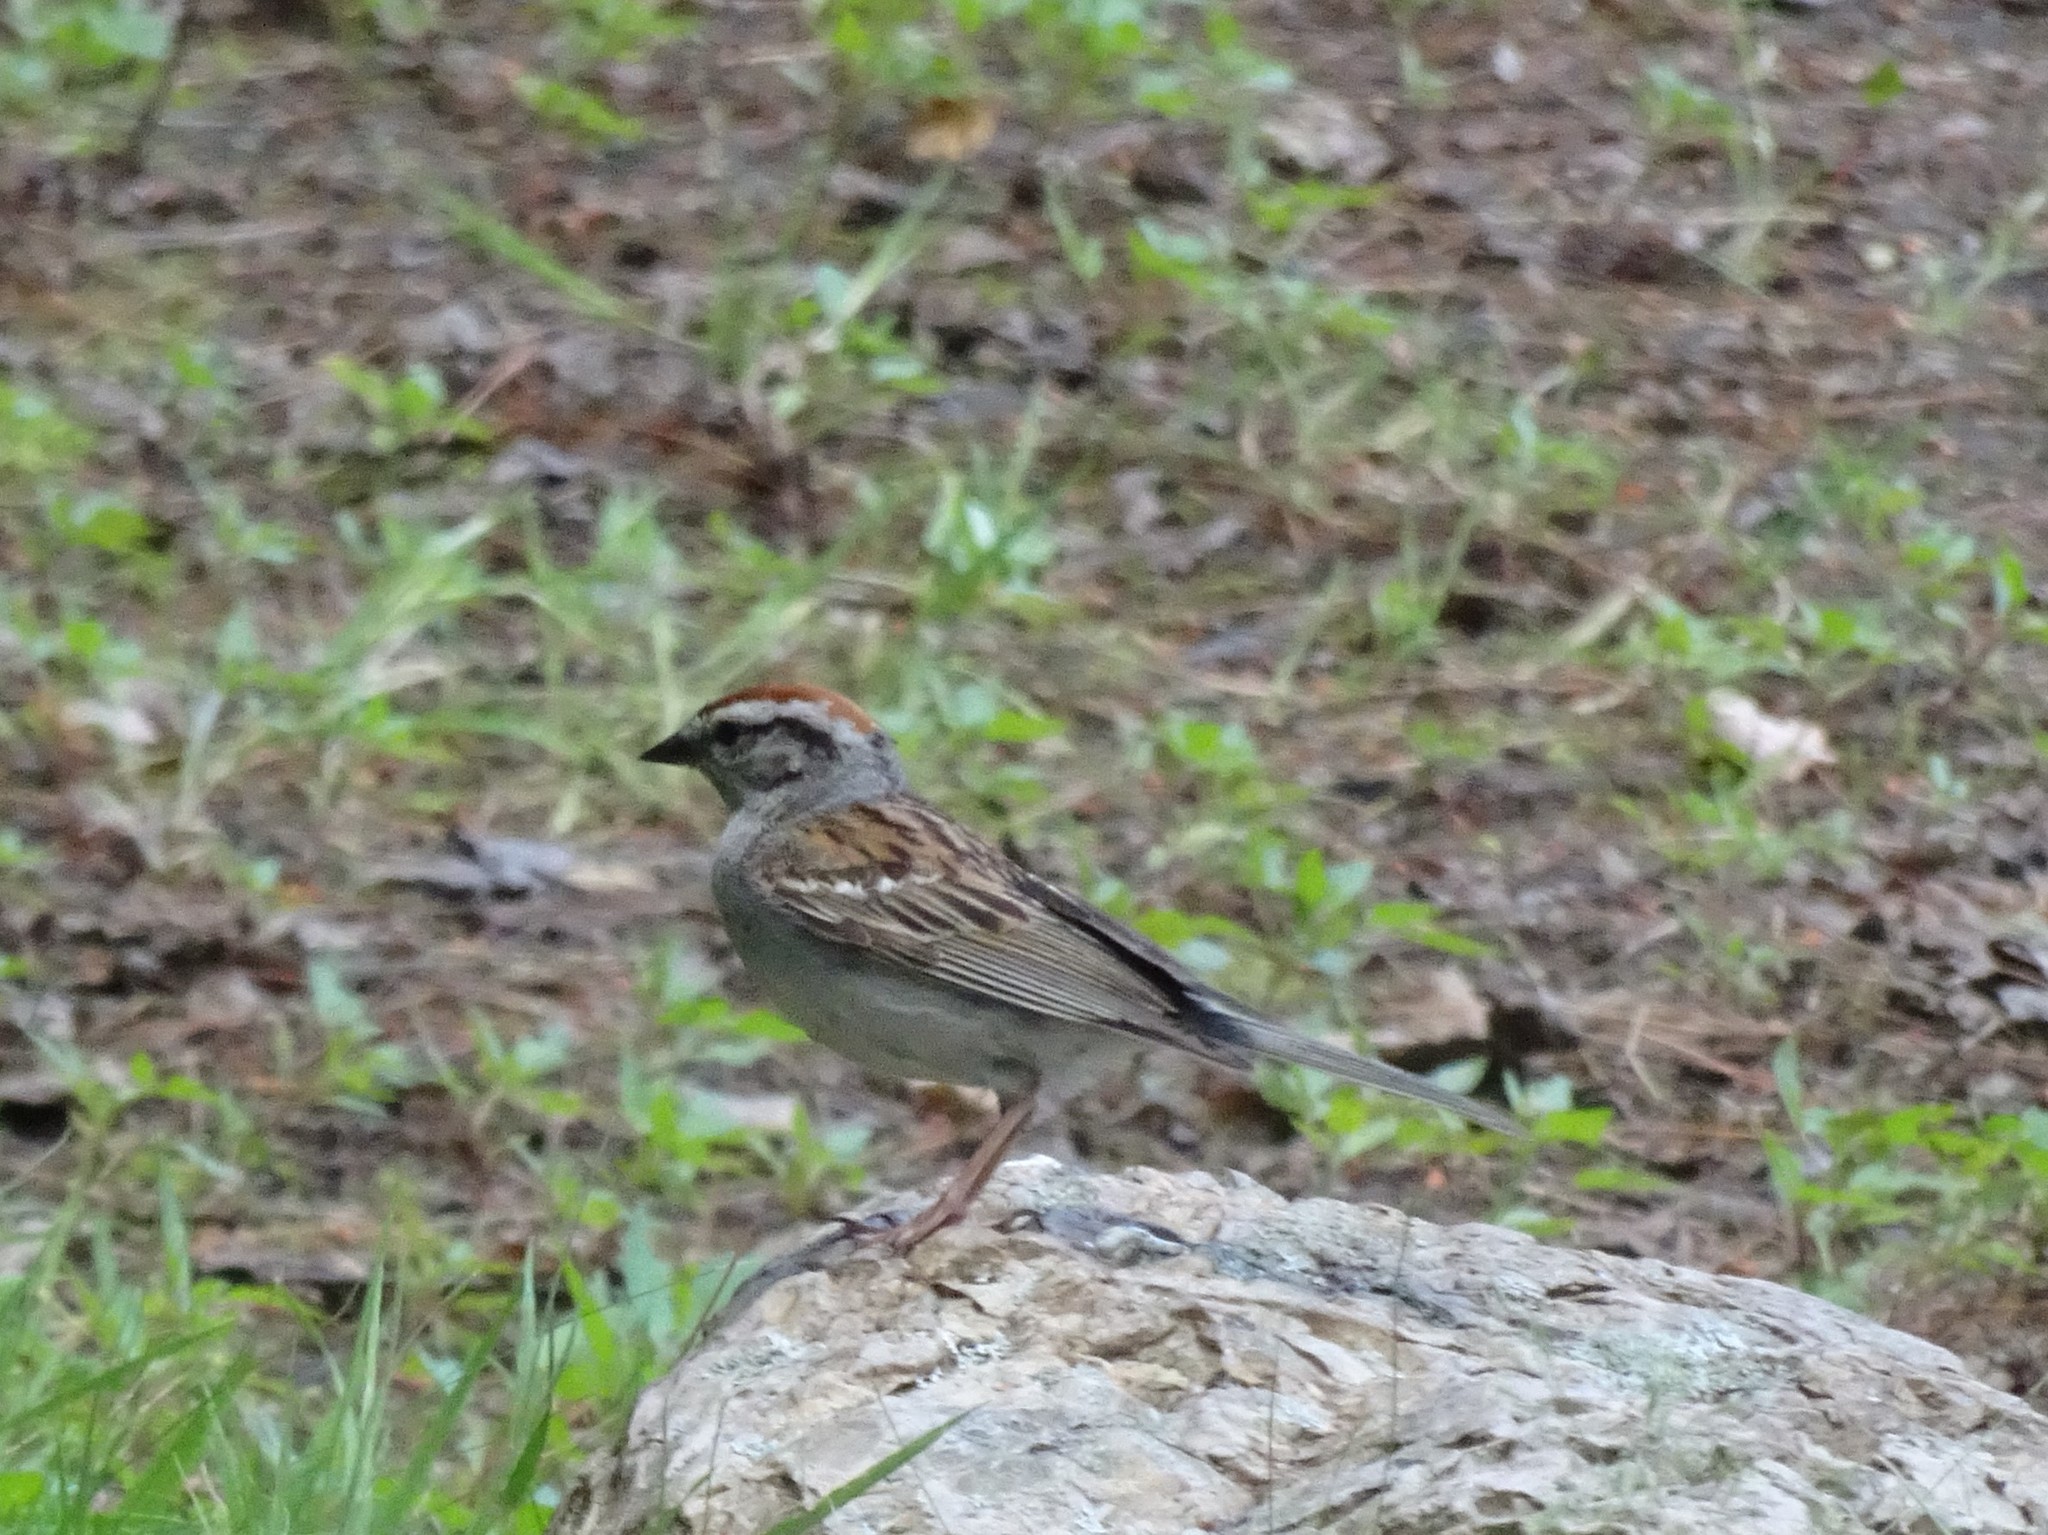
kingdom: Animalia
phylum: Chordata
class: Aves
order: Passeriformes
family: Passerellidae
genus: Spizella
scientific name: Spizella passerina
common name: Chipping sparrow
